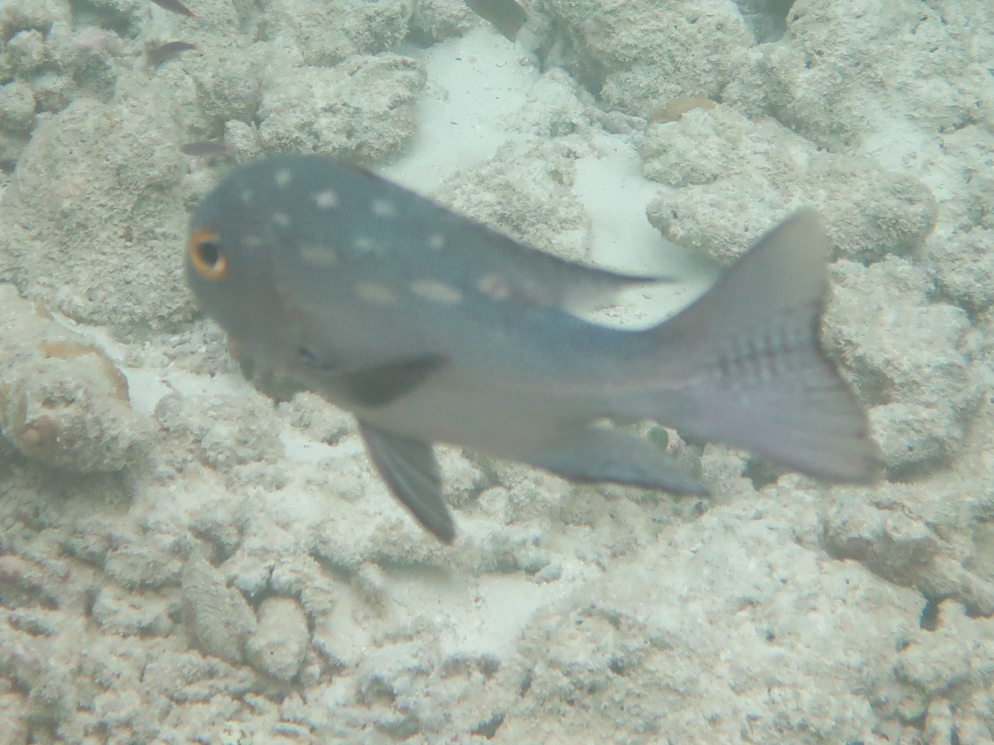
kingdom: Animalia
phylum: Chordata
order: Perciformes
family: Lutjanidae
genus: Macolor
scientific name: Macolor macularis
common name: Midnight snapper
